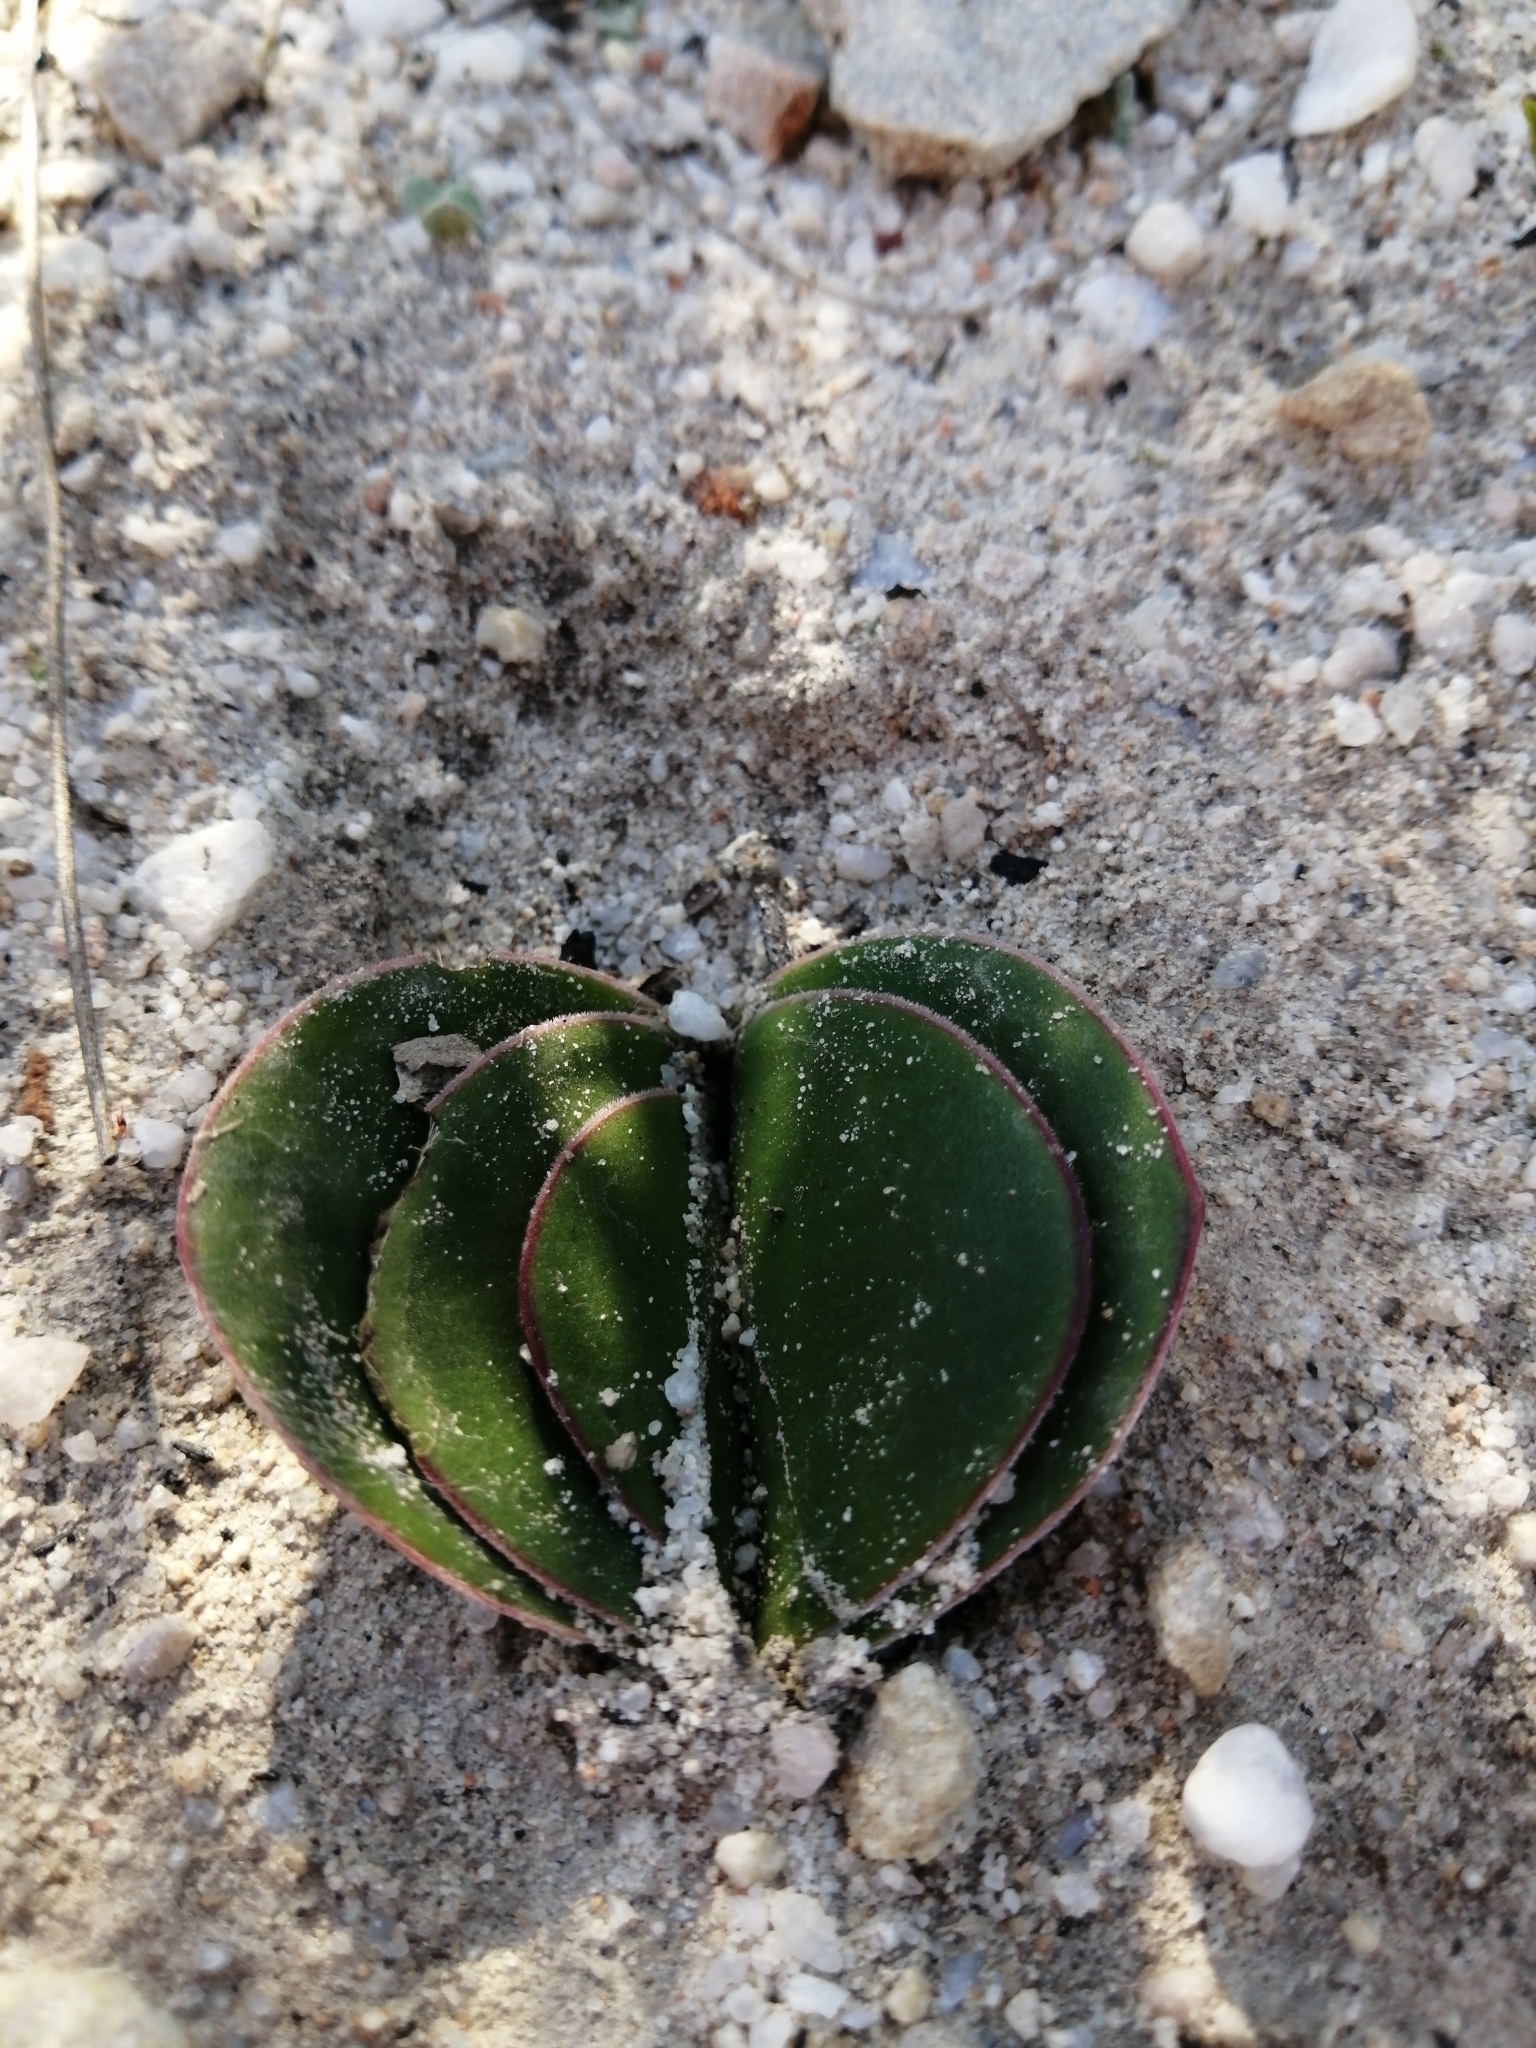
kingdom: Plantae
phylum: Tracheophyta
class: Liliopsida
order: Asparagales
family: Amaryllidaceae
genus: Brunsvigia
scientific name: Brunsvigia orientalis
